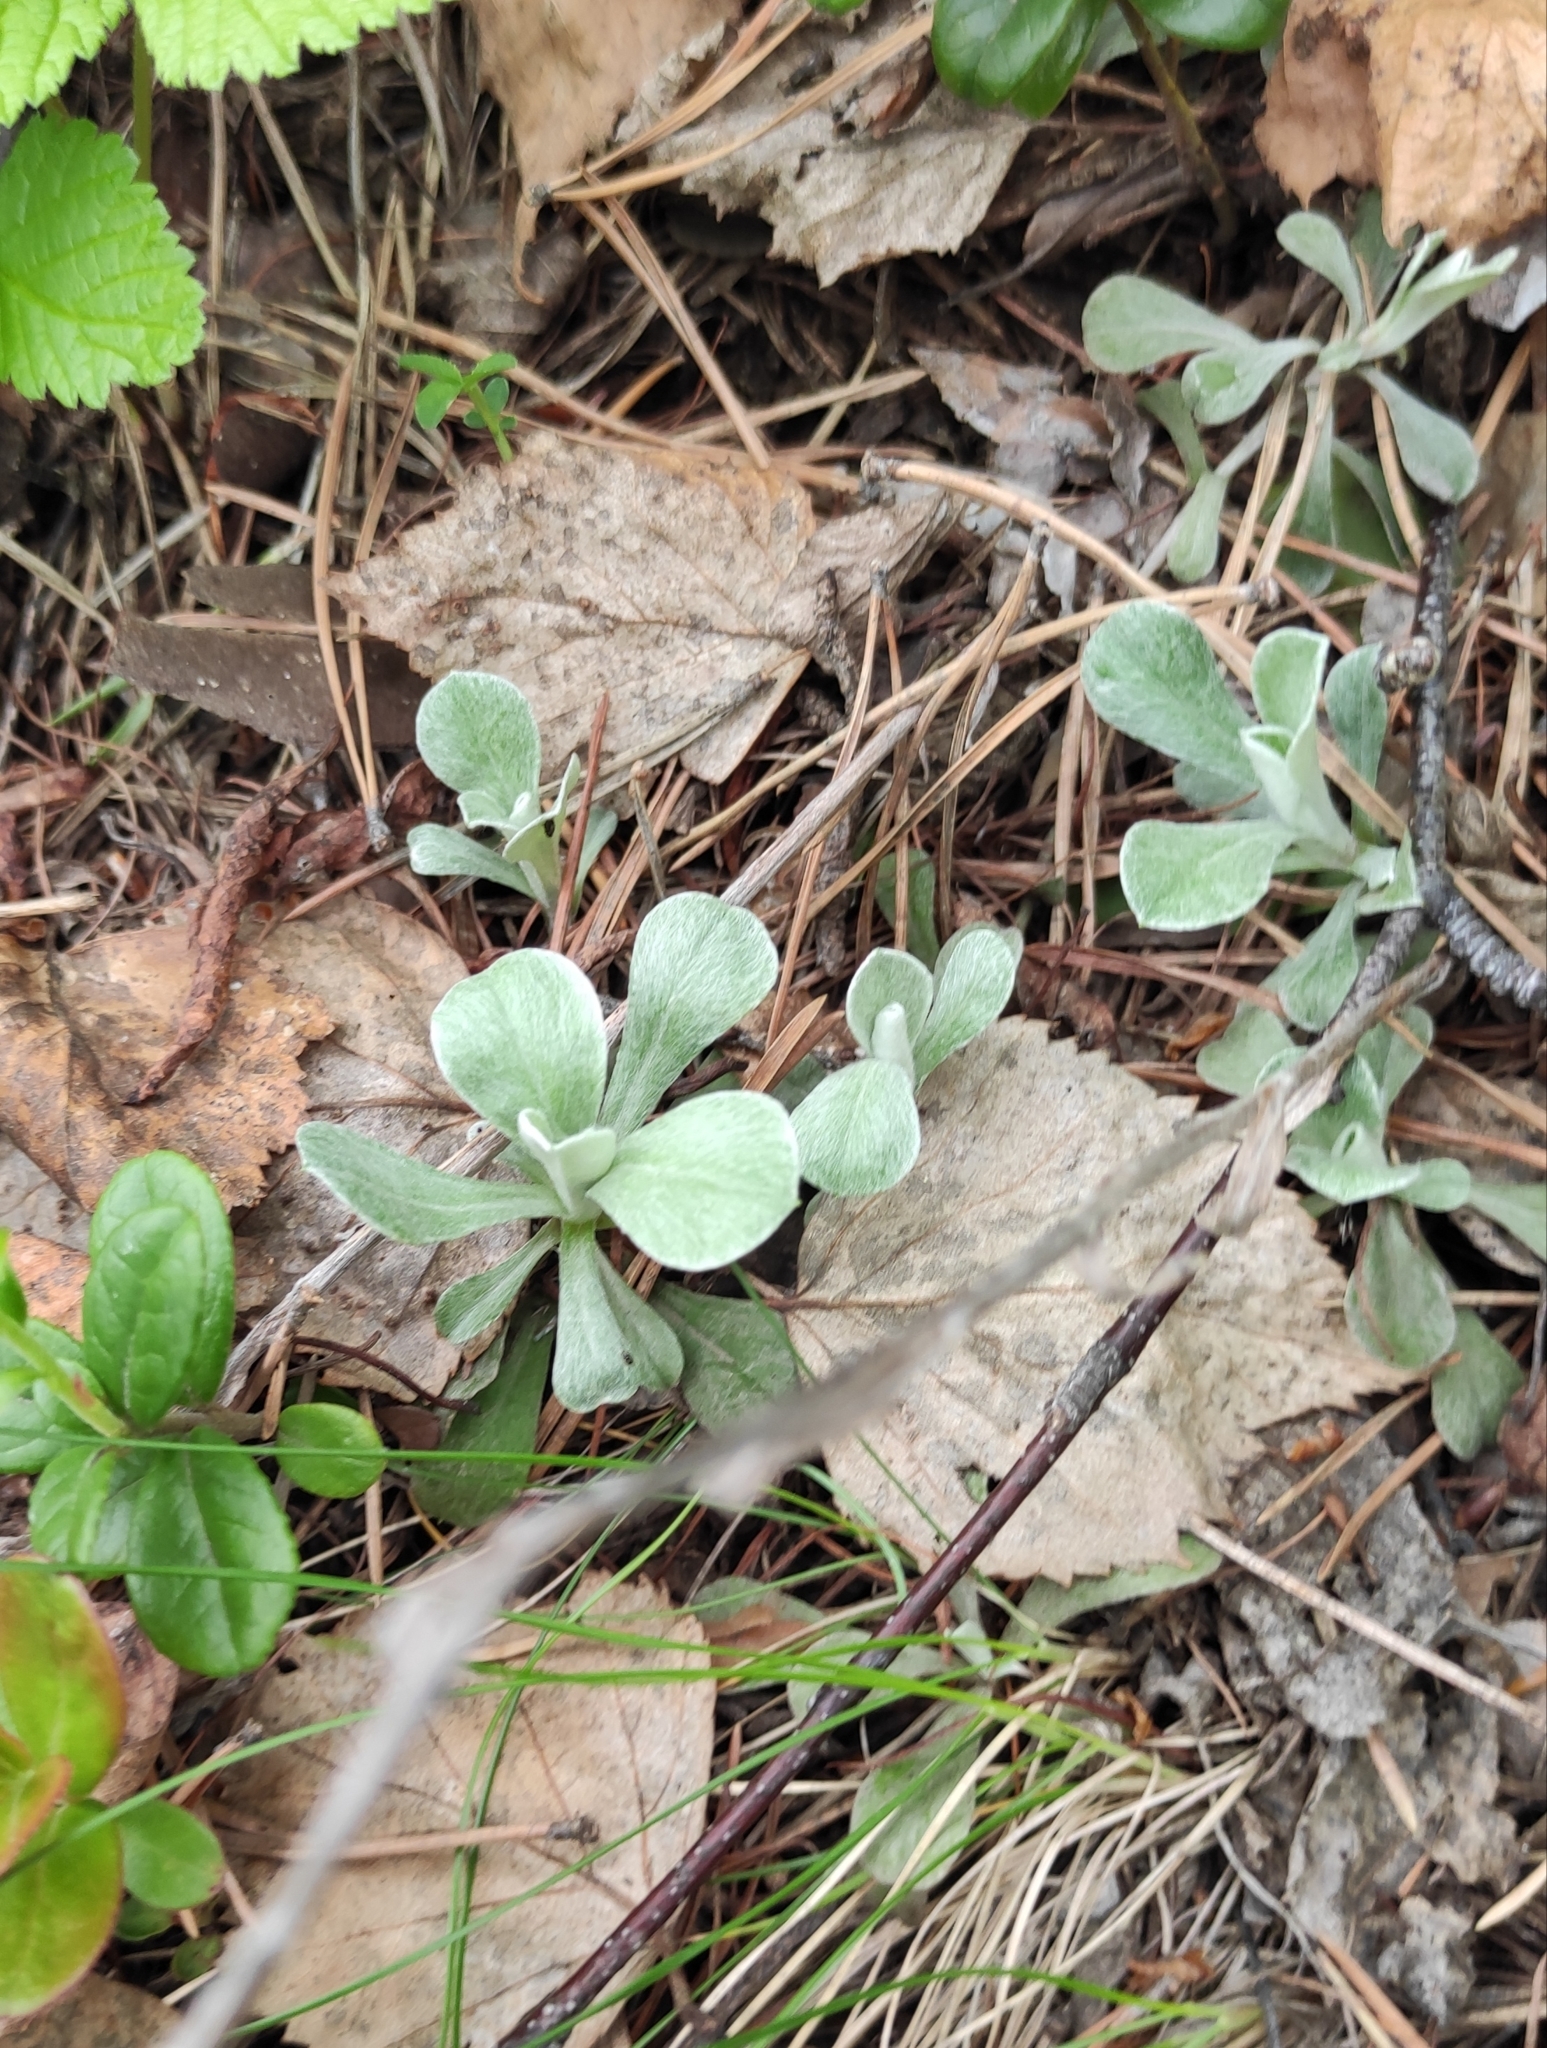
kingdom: Plantae
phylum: Tracheophyta
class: Magnoliopsida
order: Asterales
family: Asteraceae
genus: Antennaria
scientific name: Antennaria dioica
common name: Mountain everlasting
